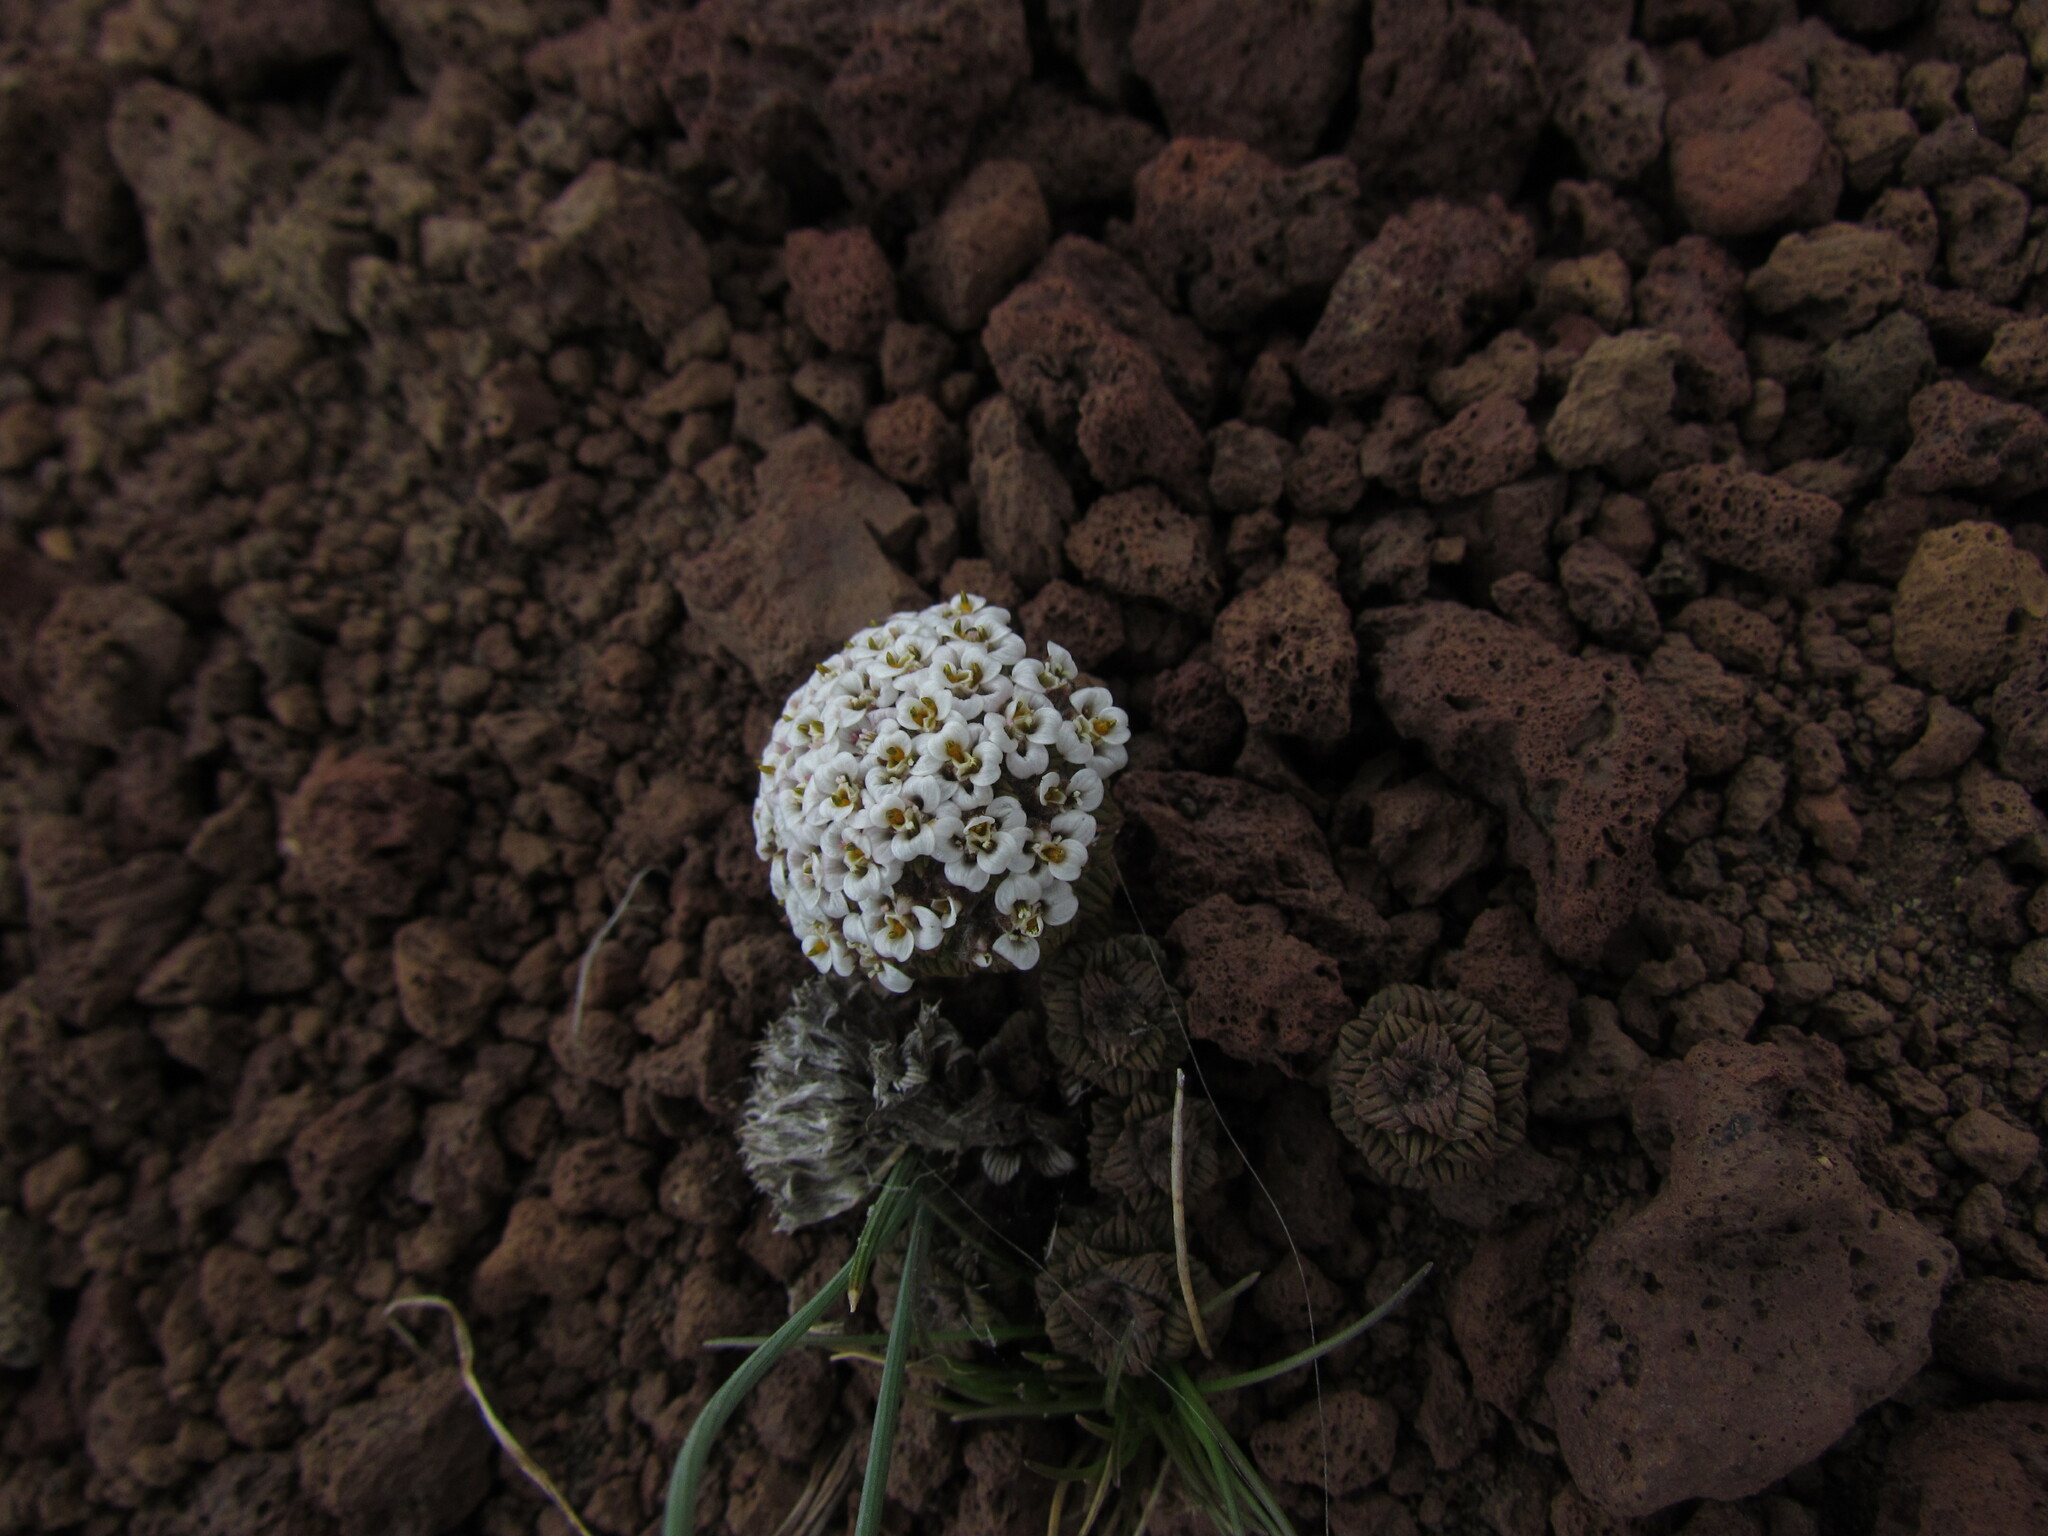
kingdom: Plantae
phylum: Tracheophyta
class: Magnoliopsida
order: Asterales
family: Asteraceae
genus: Nassauvia
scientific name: Nassauvia lagascae
